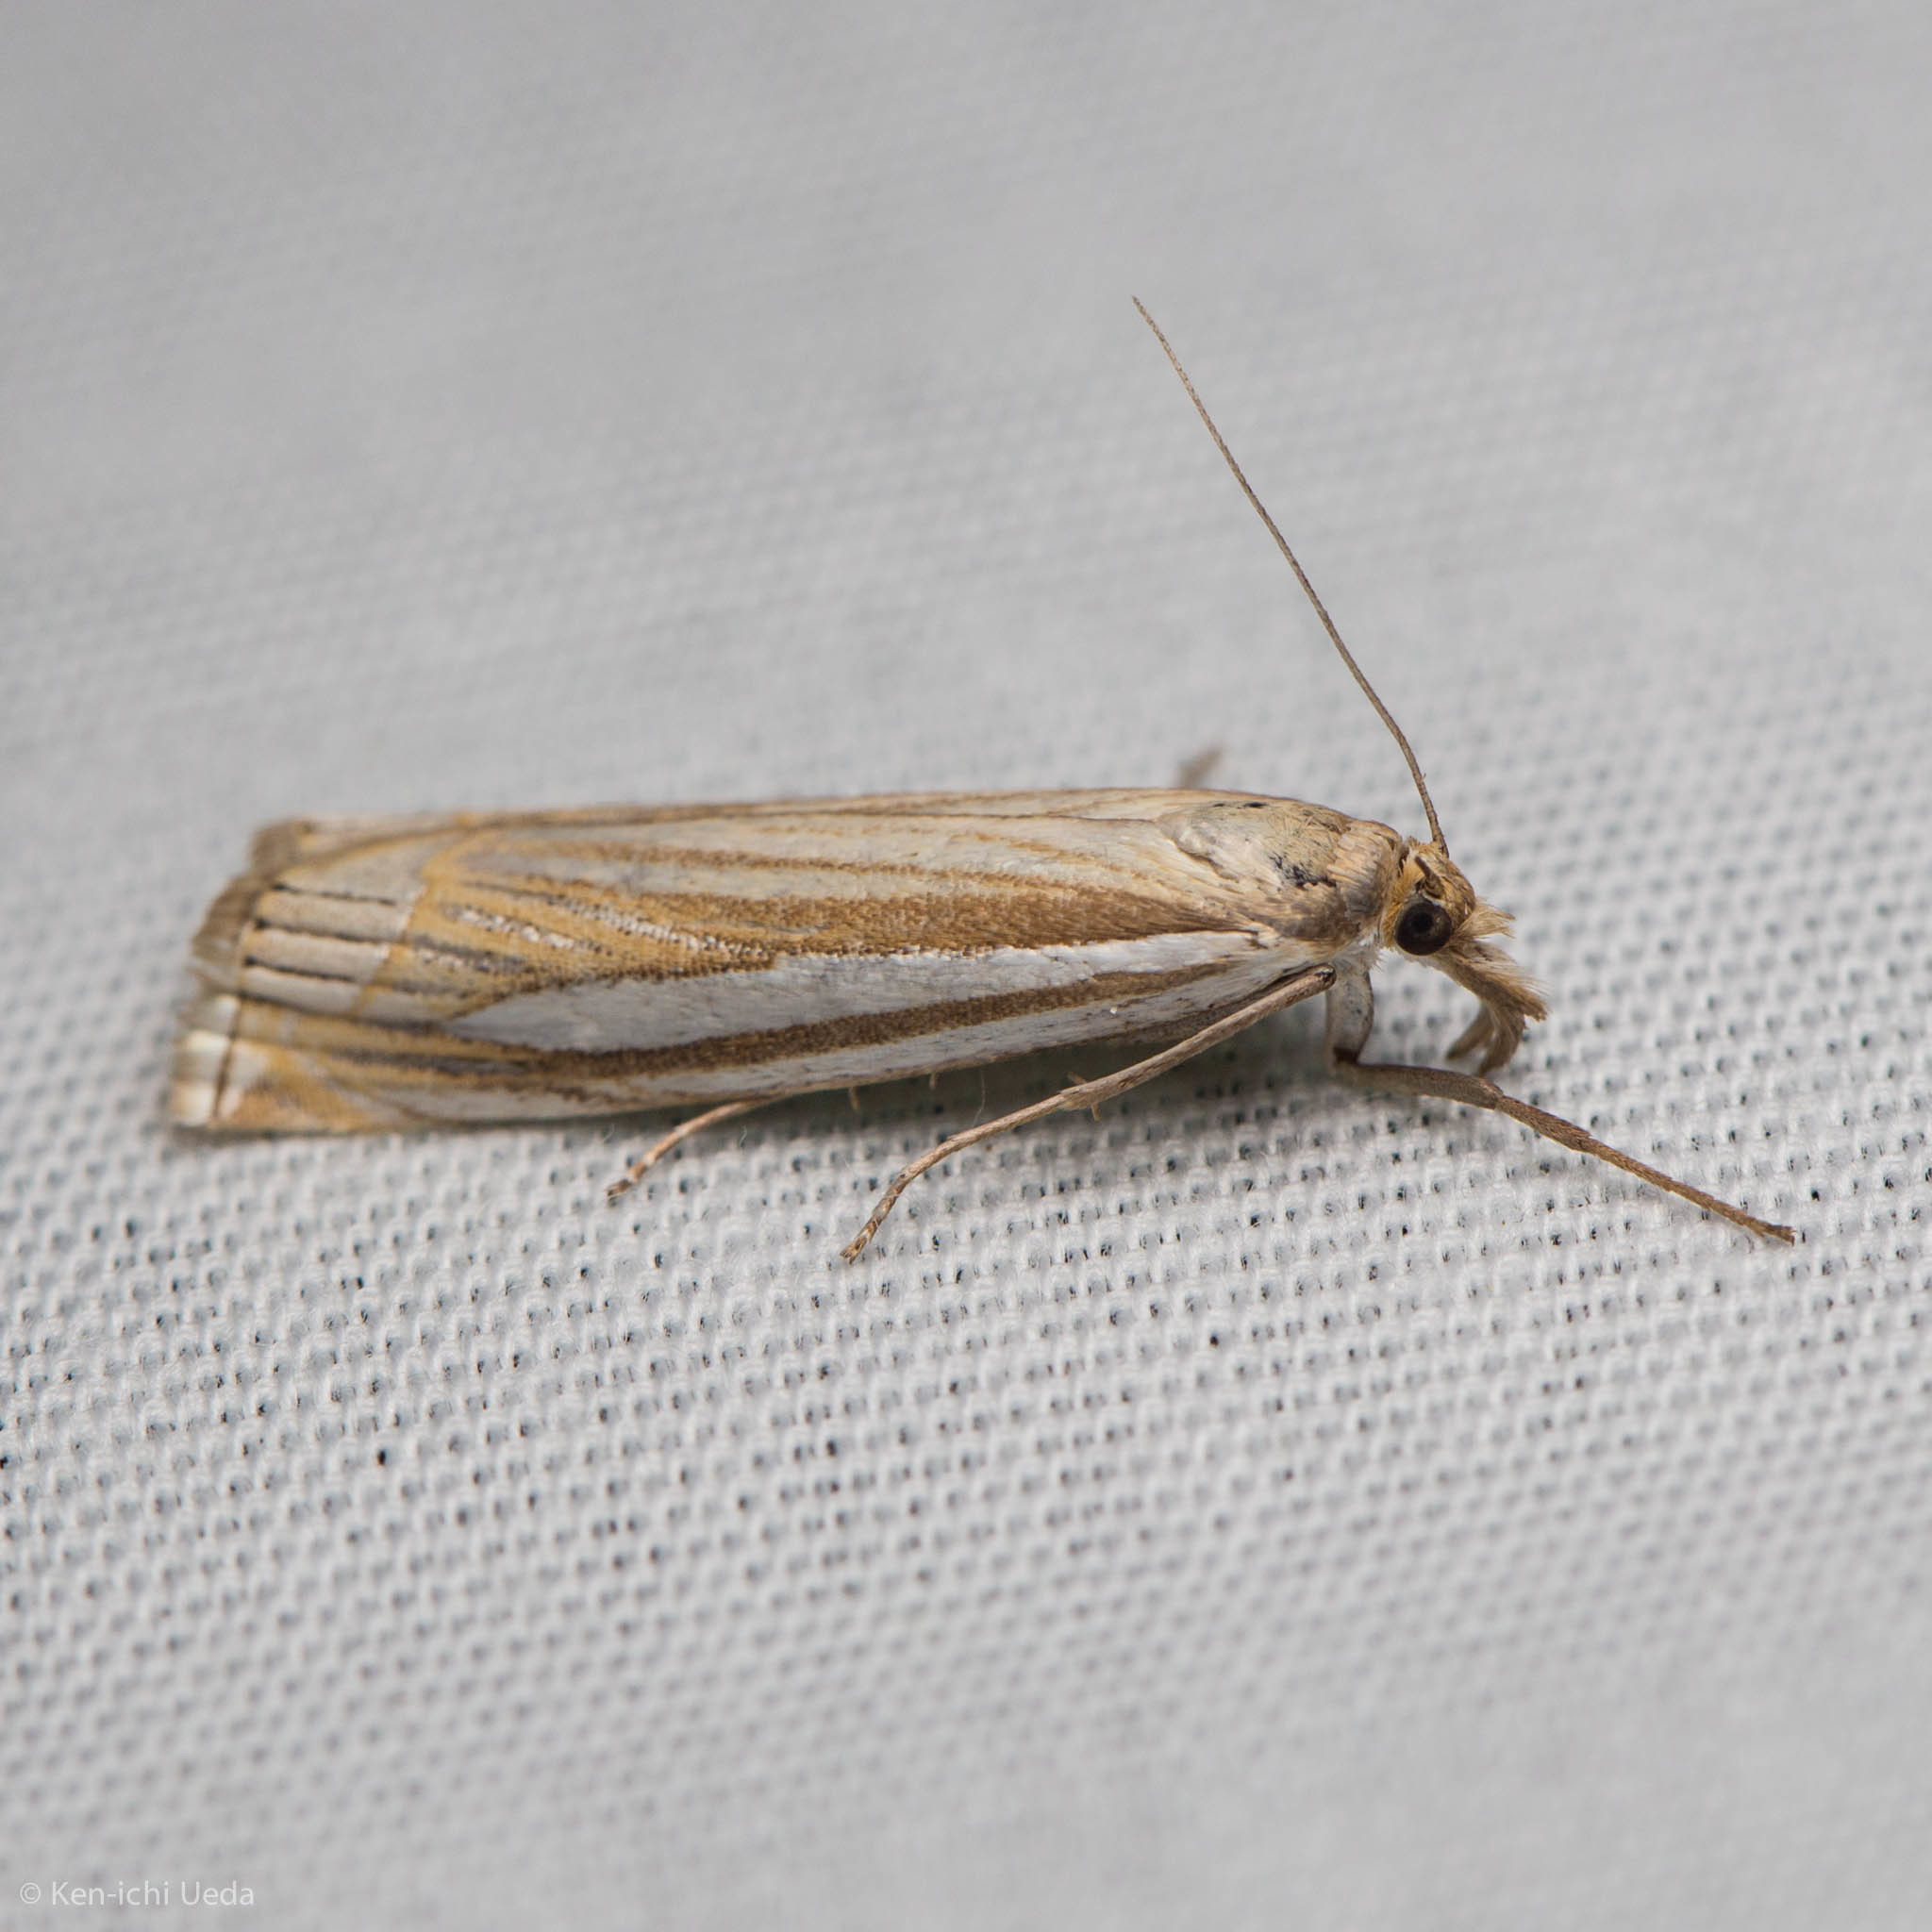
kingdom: Animalia
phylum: Arthropoda
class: Insecta
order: Lepidoptera
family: Crambidae
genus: Crambus
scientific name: Crambus laqueatellus
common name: Eastern grass-veneer
